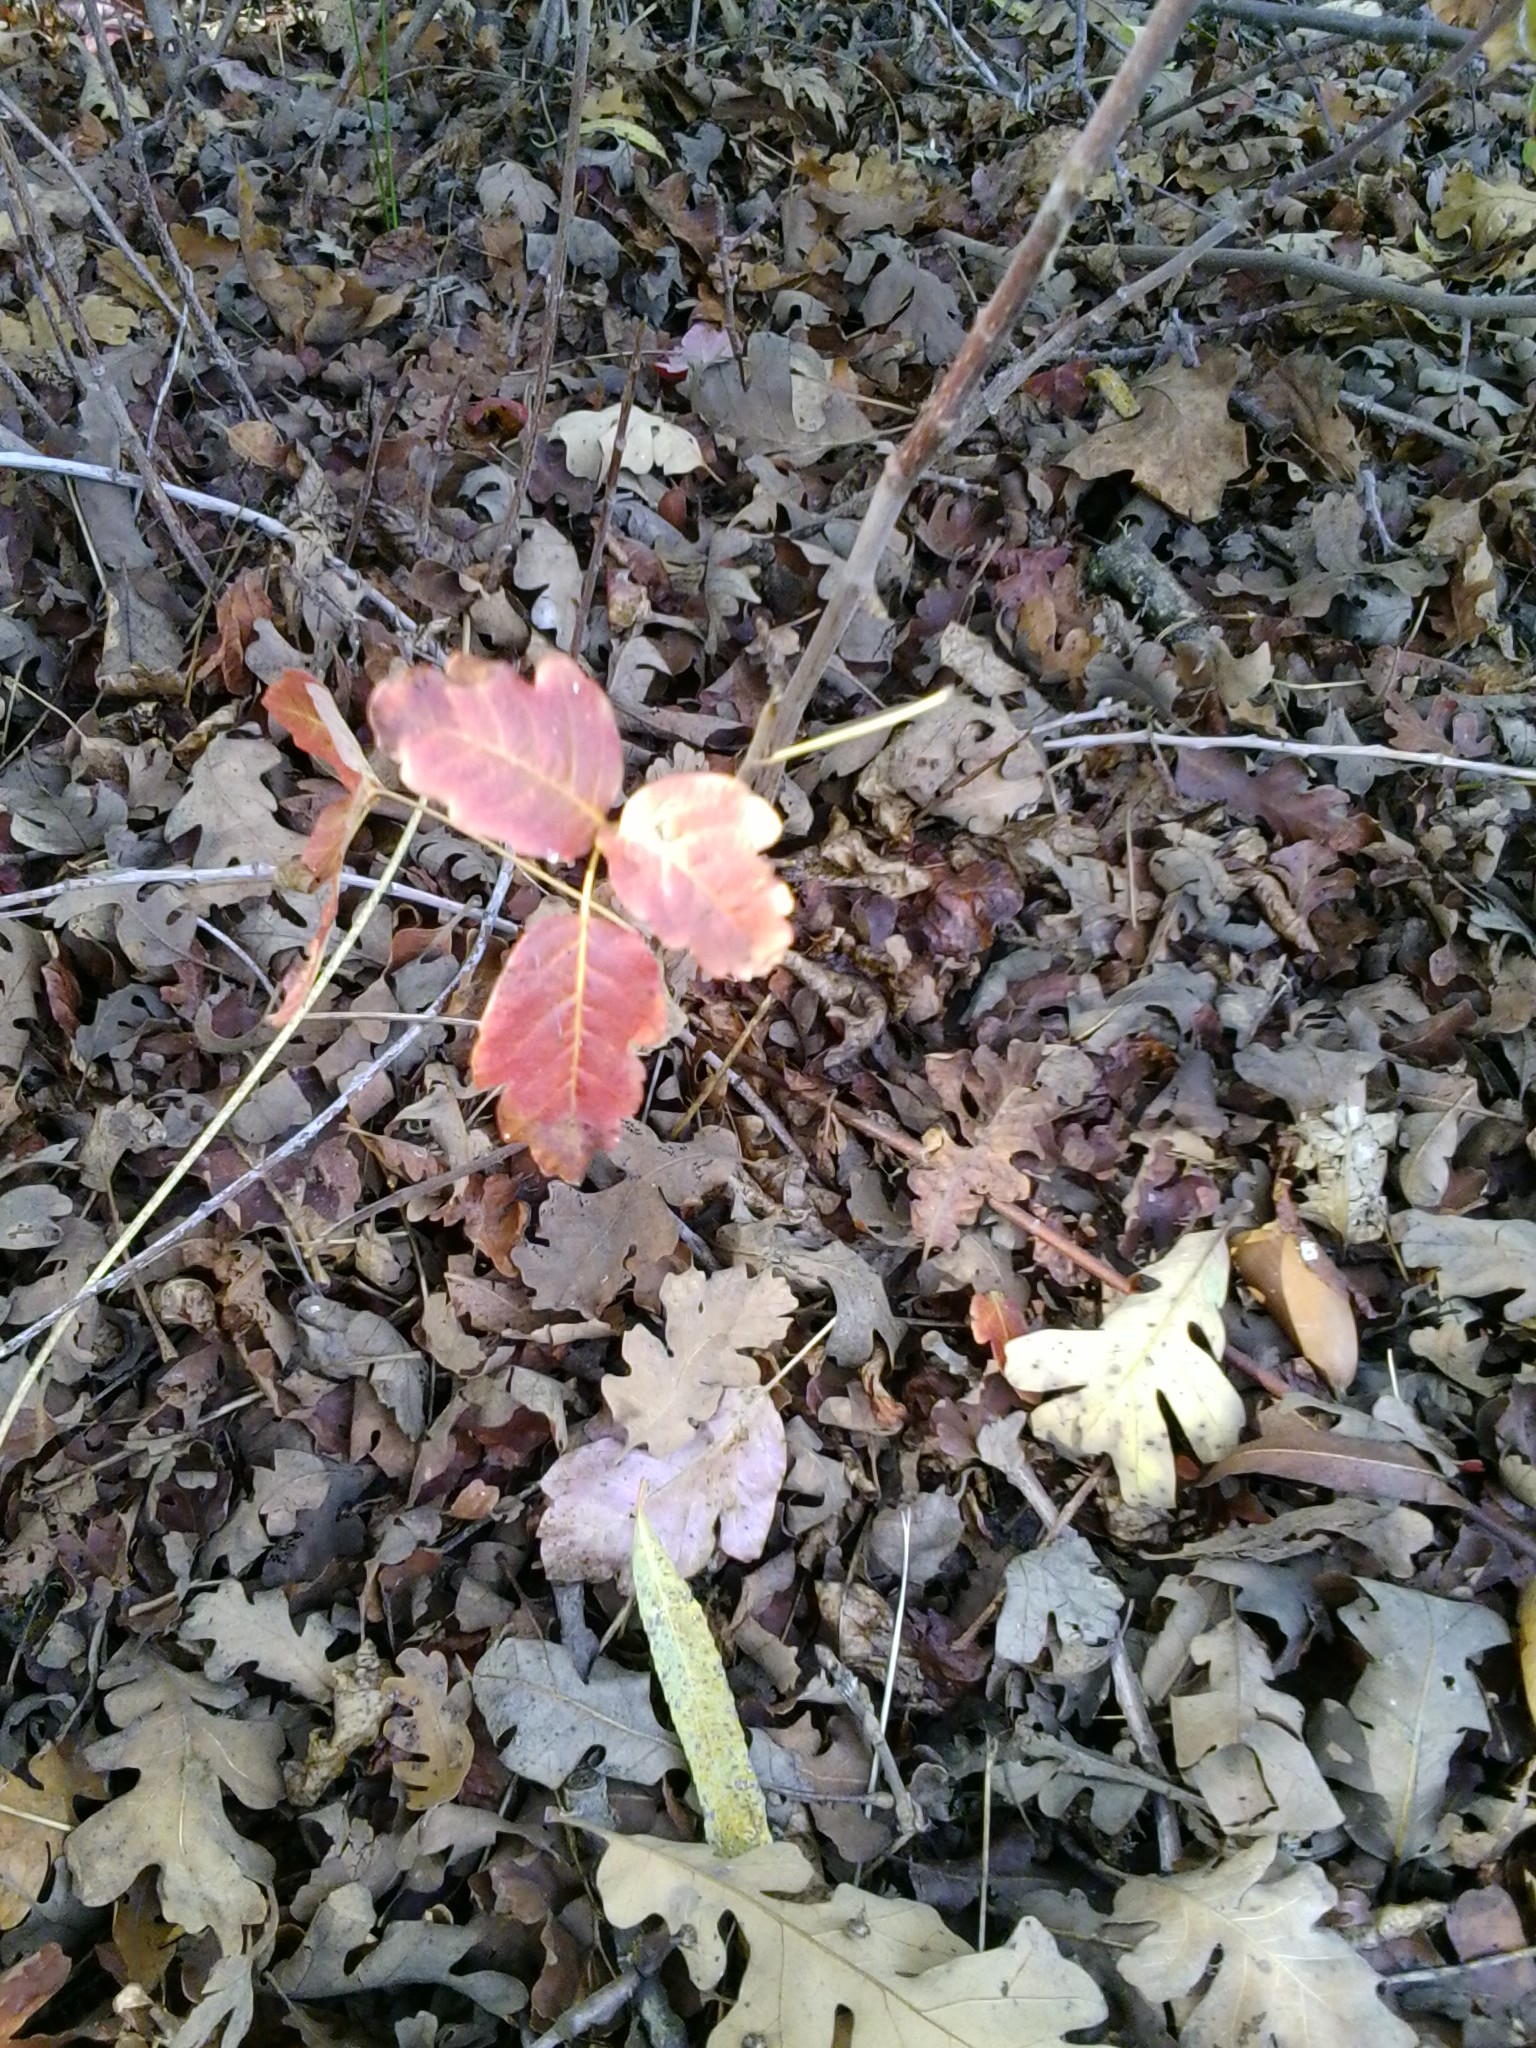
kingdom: Plantae
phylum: Tracheophyta
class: Magnoliopsida
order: Sapindales
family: Anacardiaceae
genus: Toxicodendron
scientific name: Toxicodendron diversilobum
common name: Pacific poison-oak
